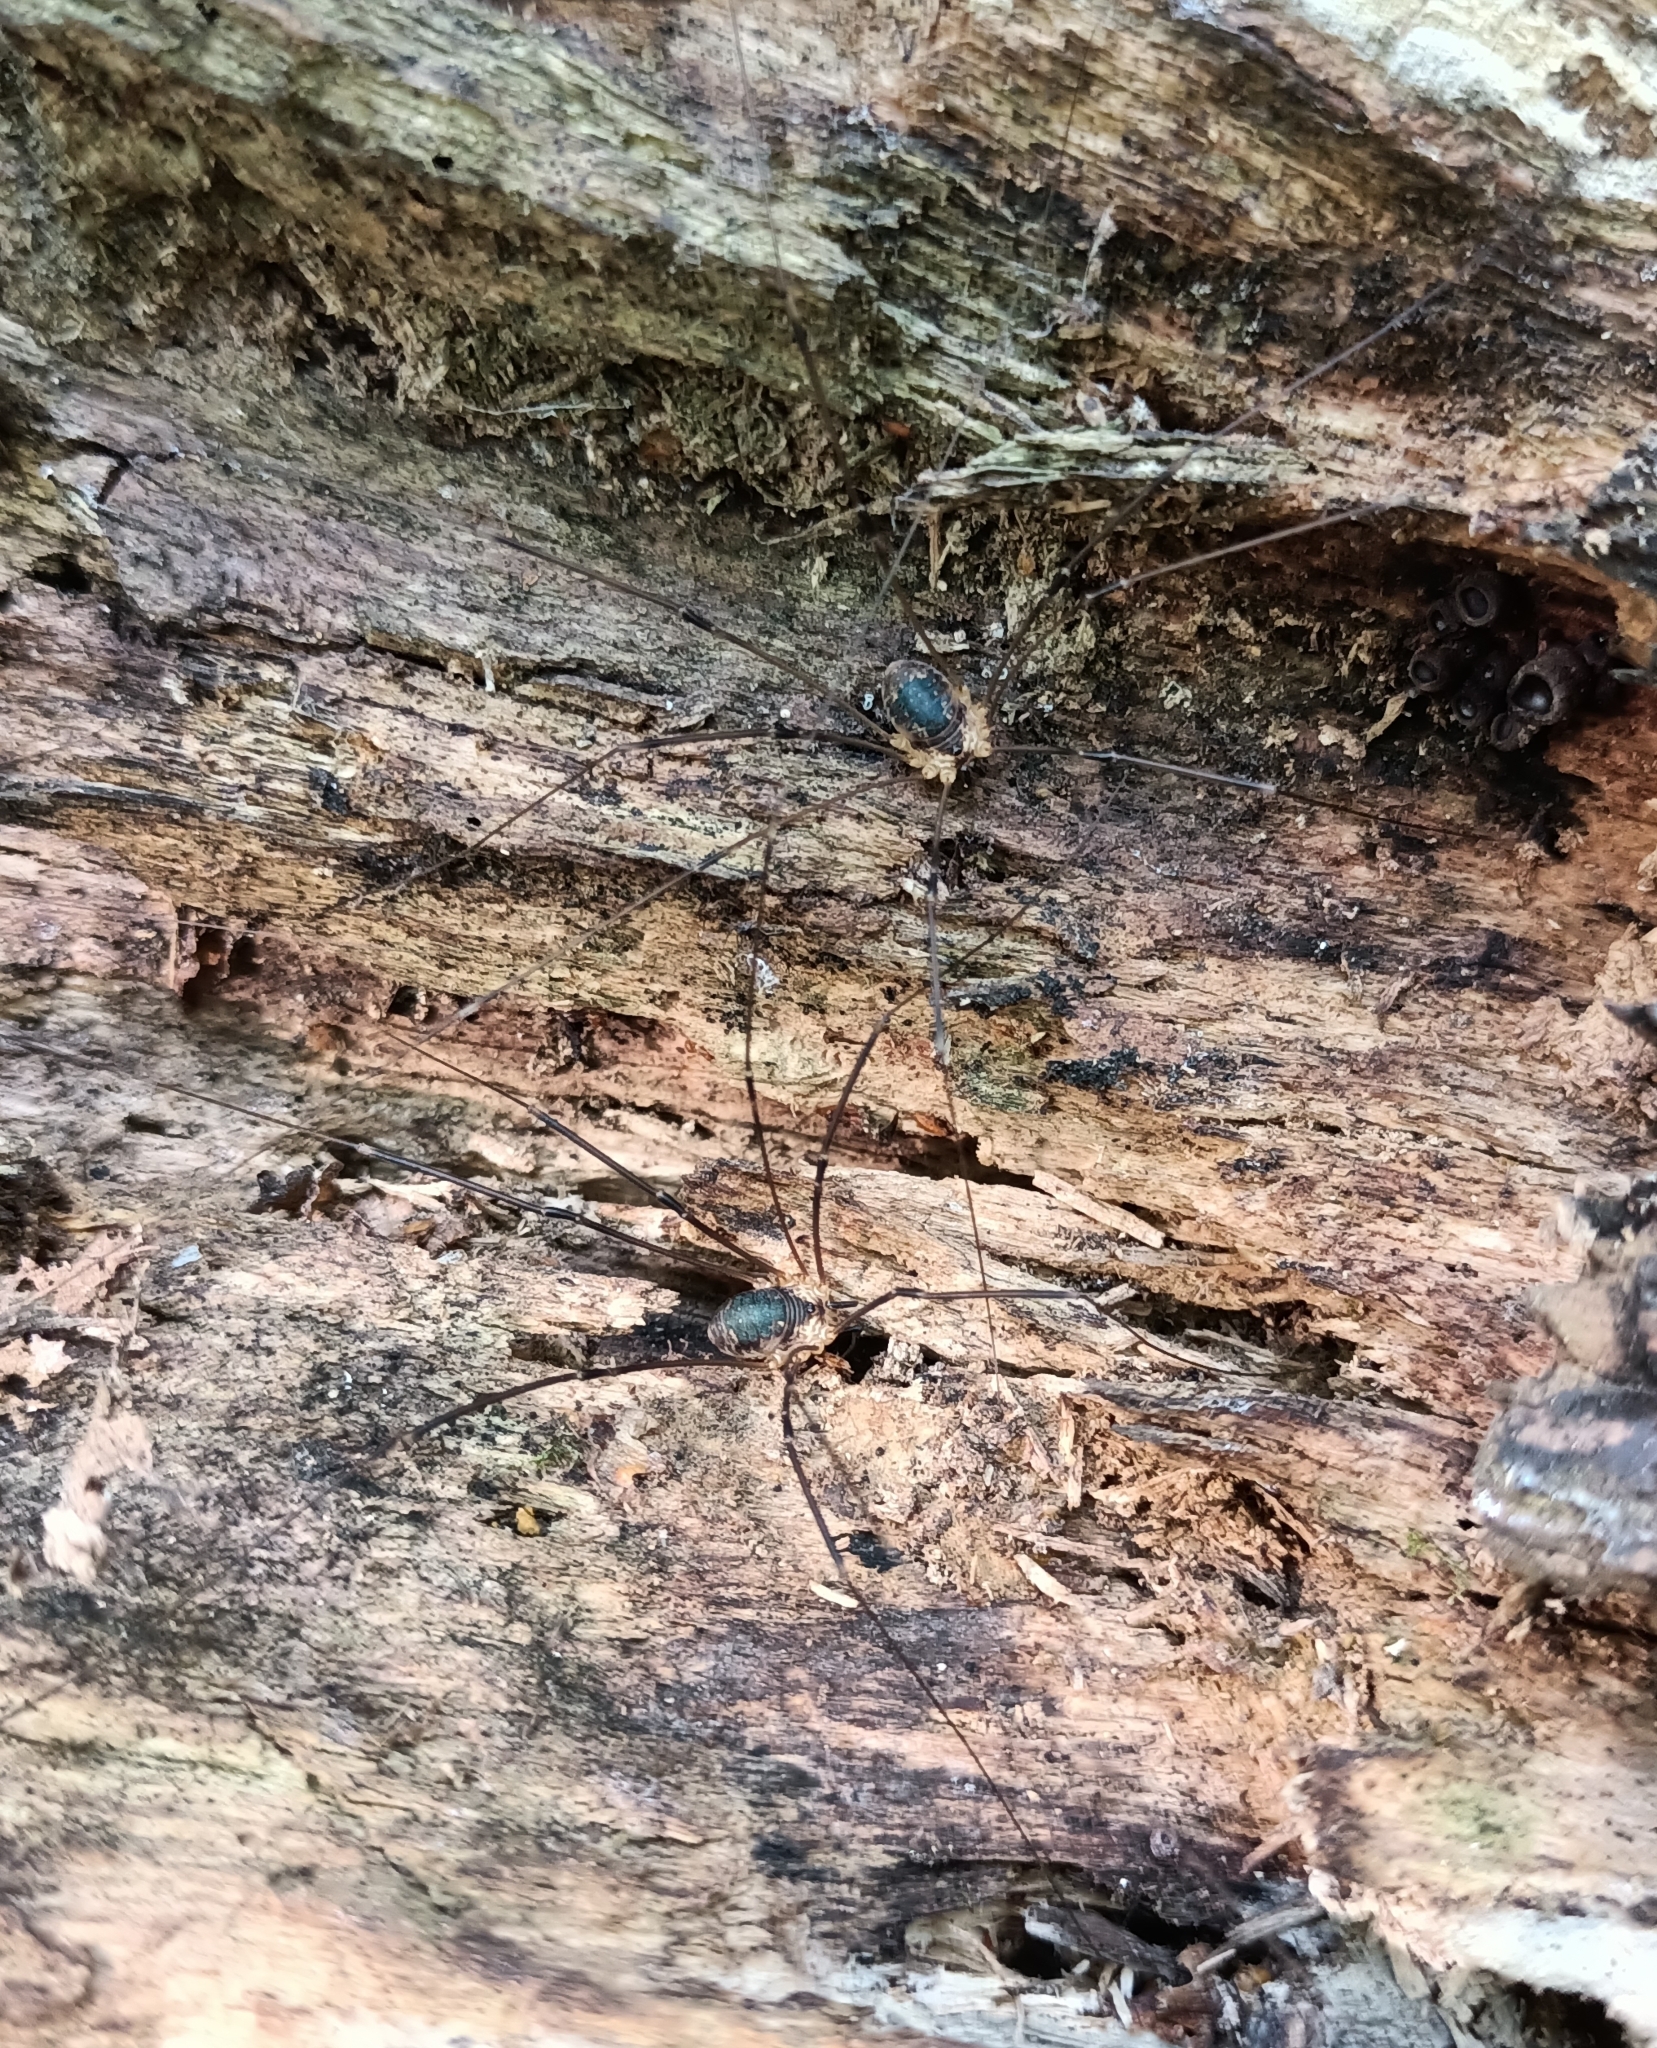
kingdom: Animalia
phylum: Arthropoda
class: Arachnida
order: Opiliones
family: Sclerosomatidae
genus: Leiobunum
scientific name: Leiobunum gracile
